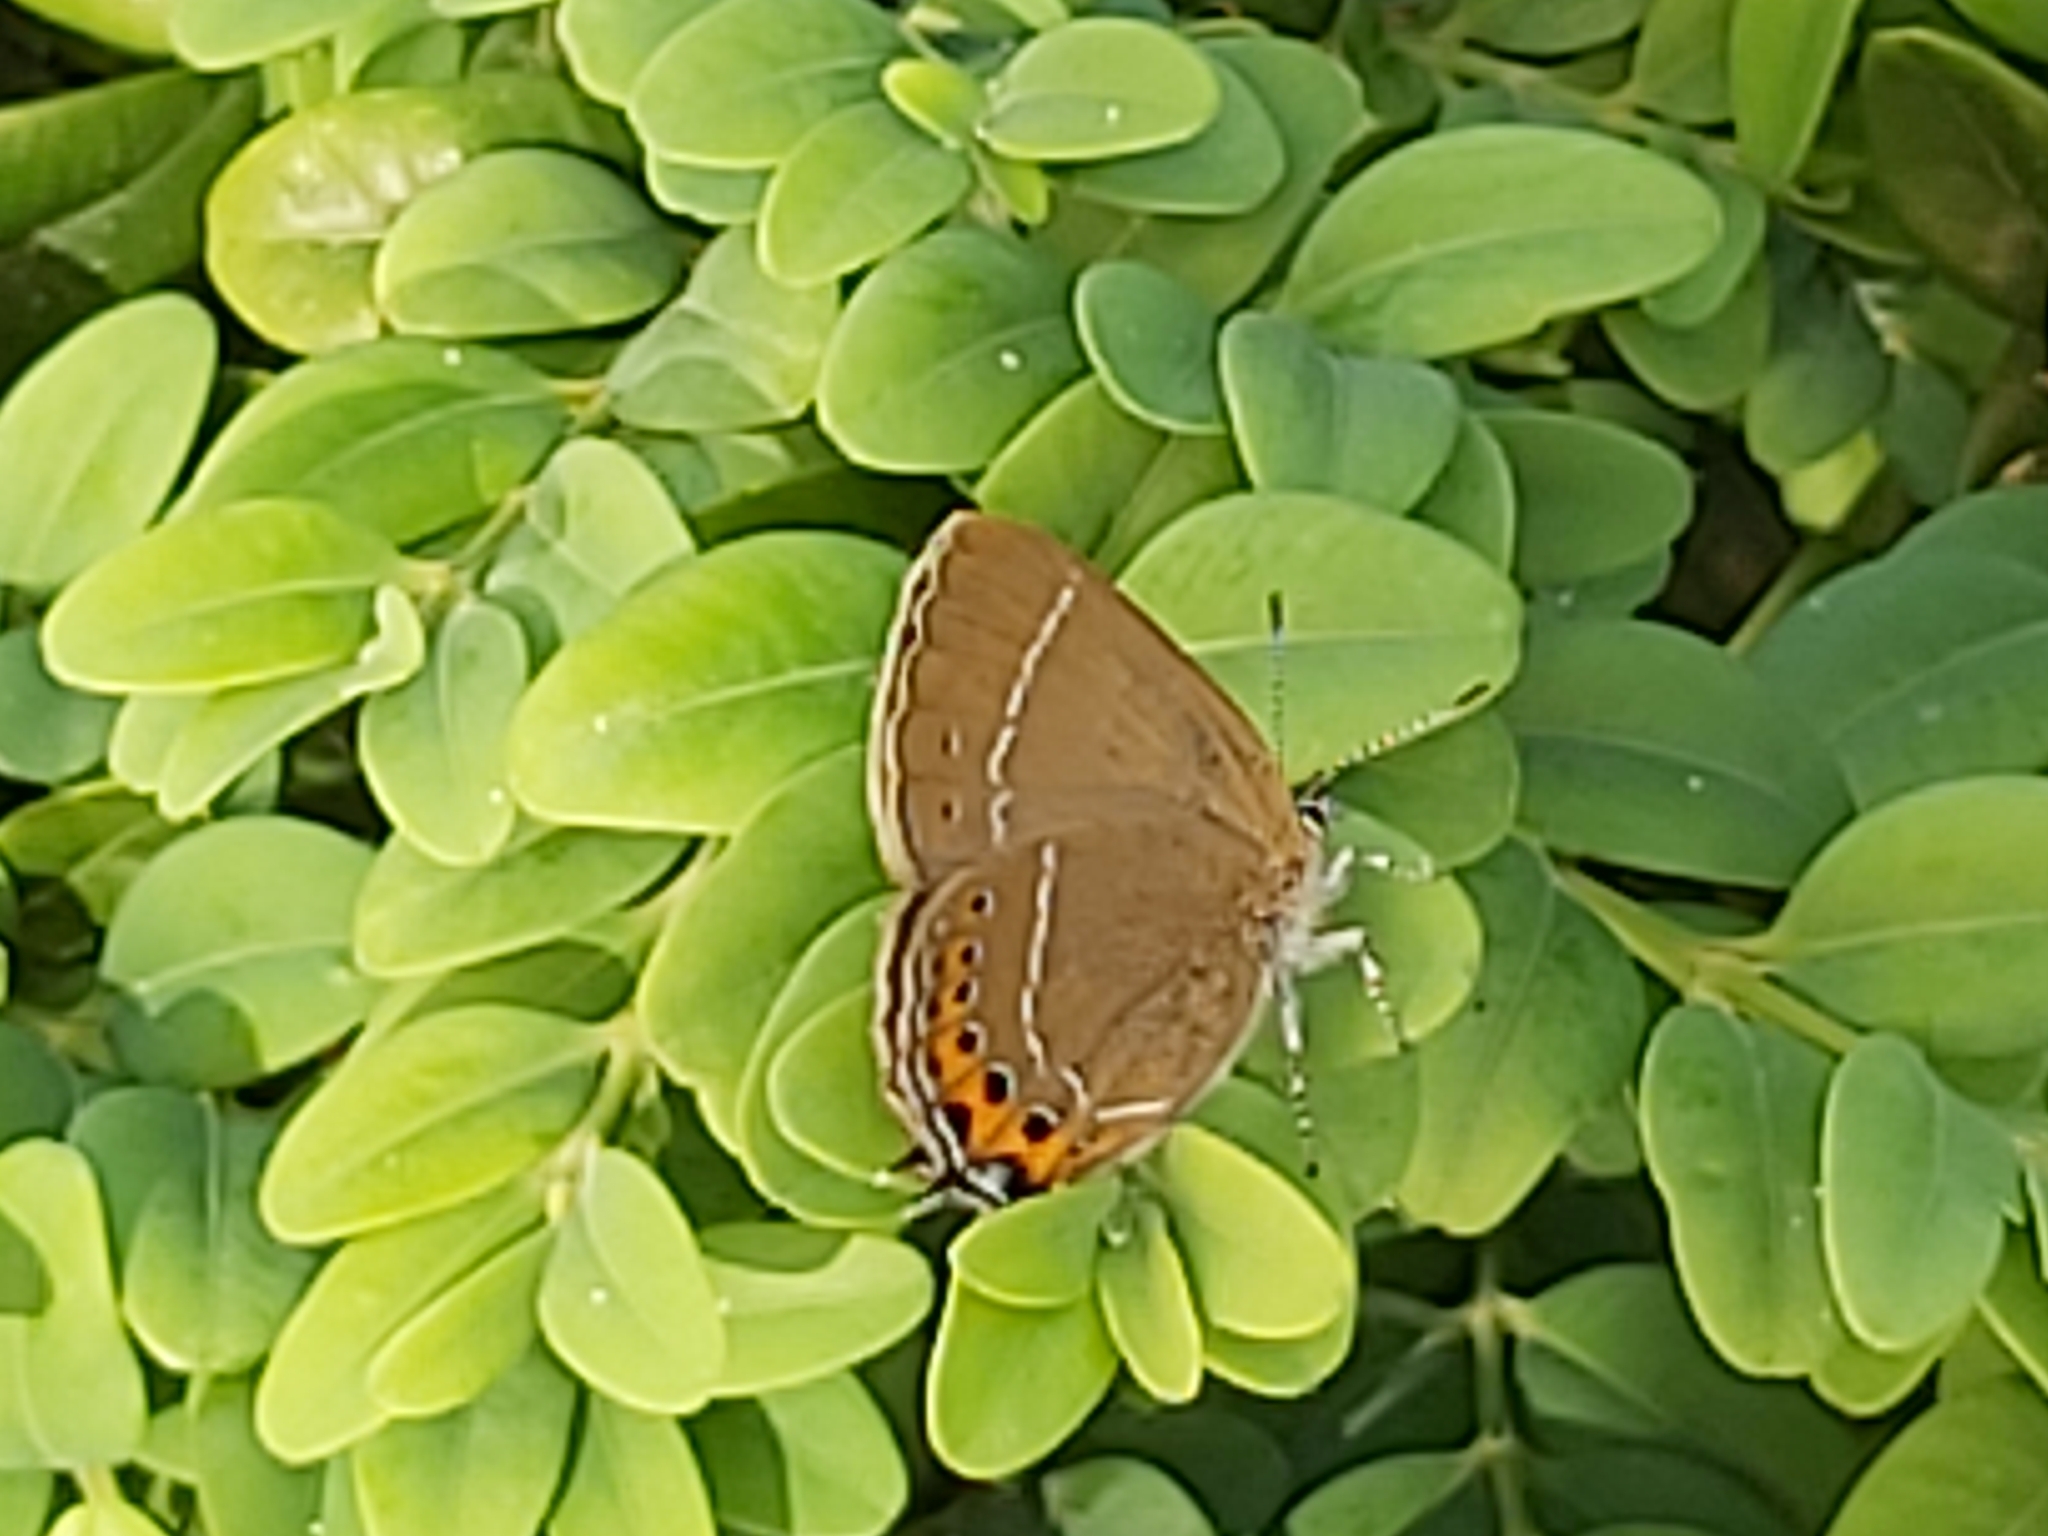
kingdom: Animalia
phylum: Arthropoda
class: Insecta
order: Lepidoptera
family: Lycaenidae
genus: Fixsenia
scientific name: Fixsenia pruni
